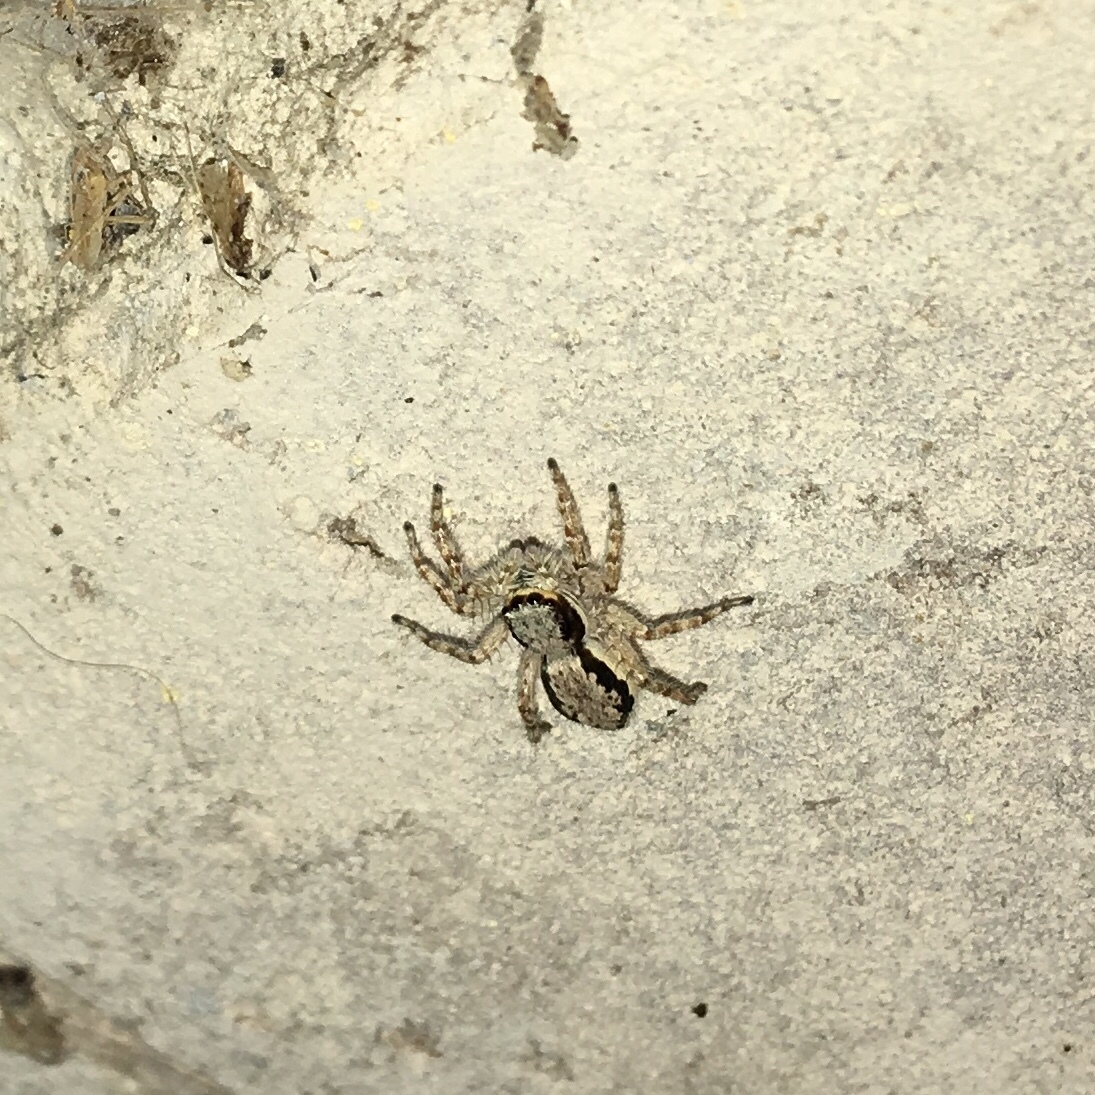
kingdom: Animalia
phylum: Arthropoda
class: Arachnida
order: Araneae
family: Salticidae
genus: Menemerus
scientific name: Menemerus bivittatus
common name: Gray wall jumper
